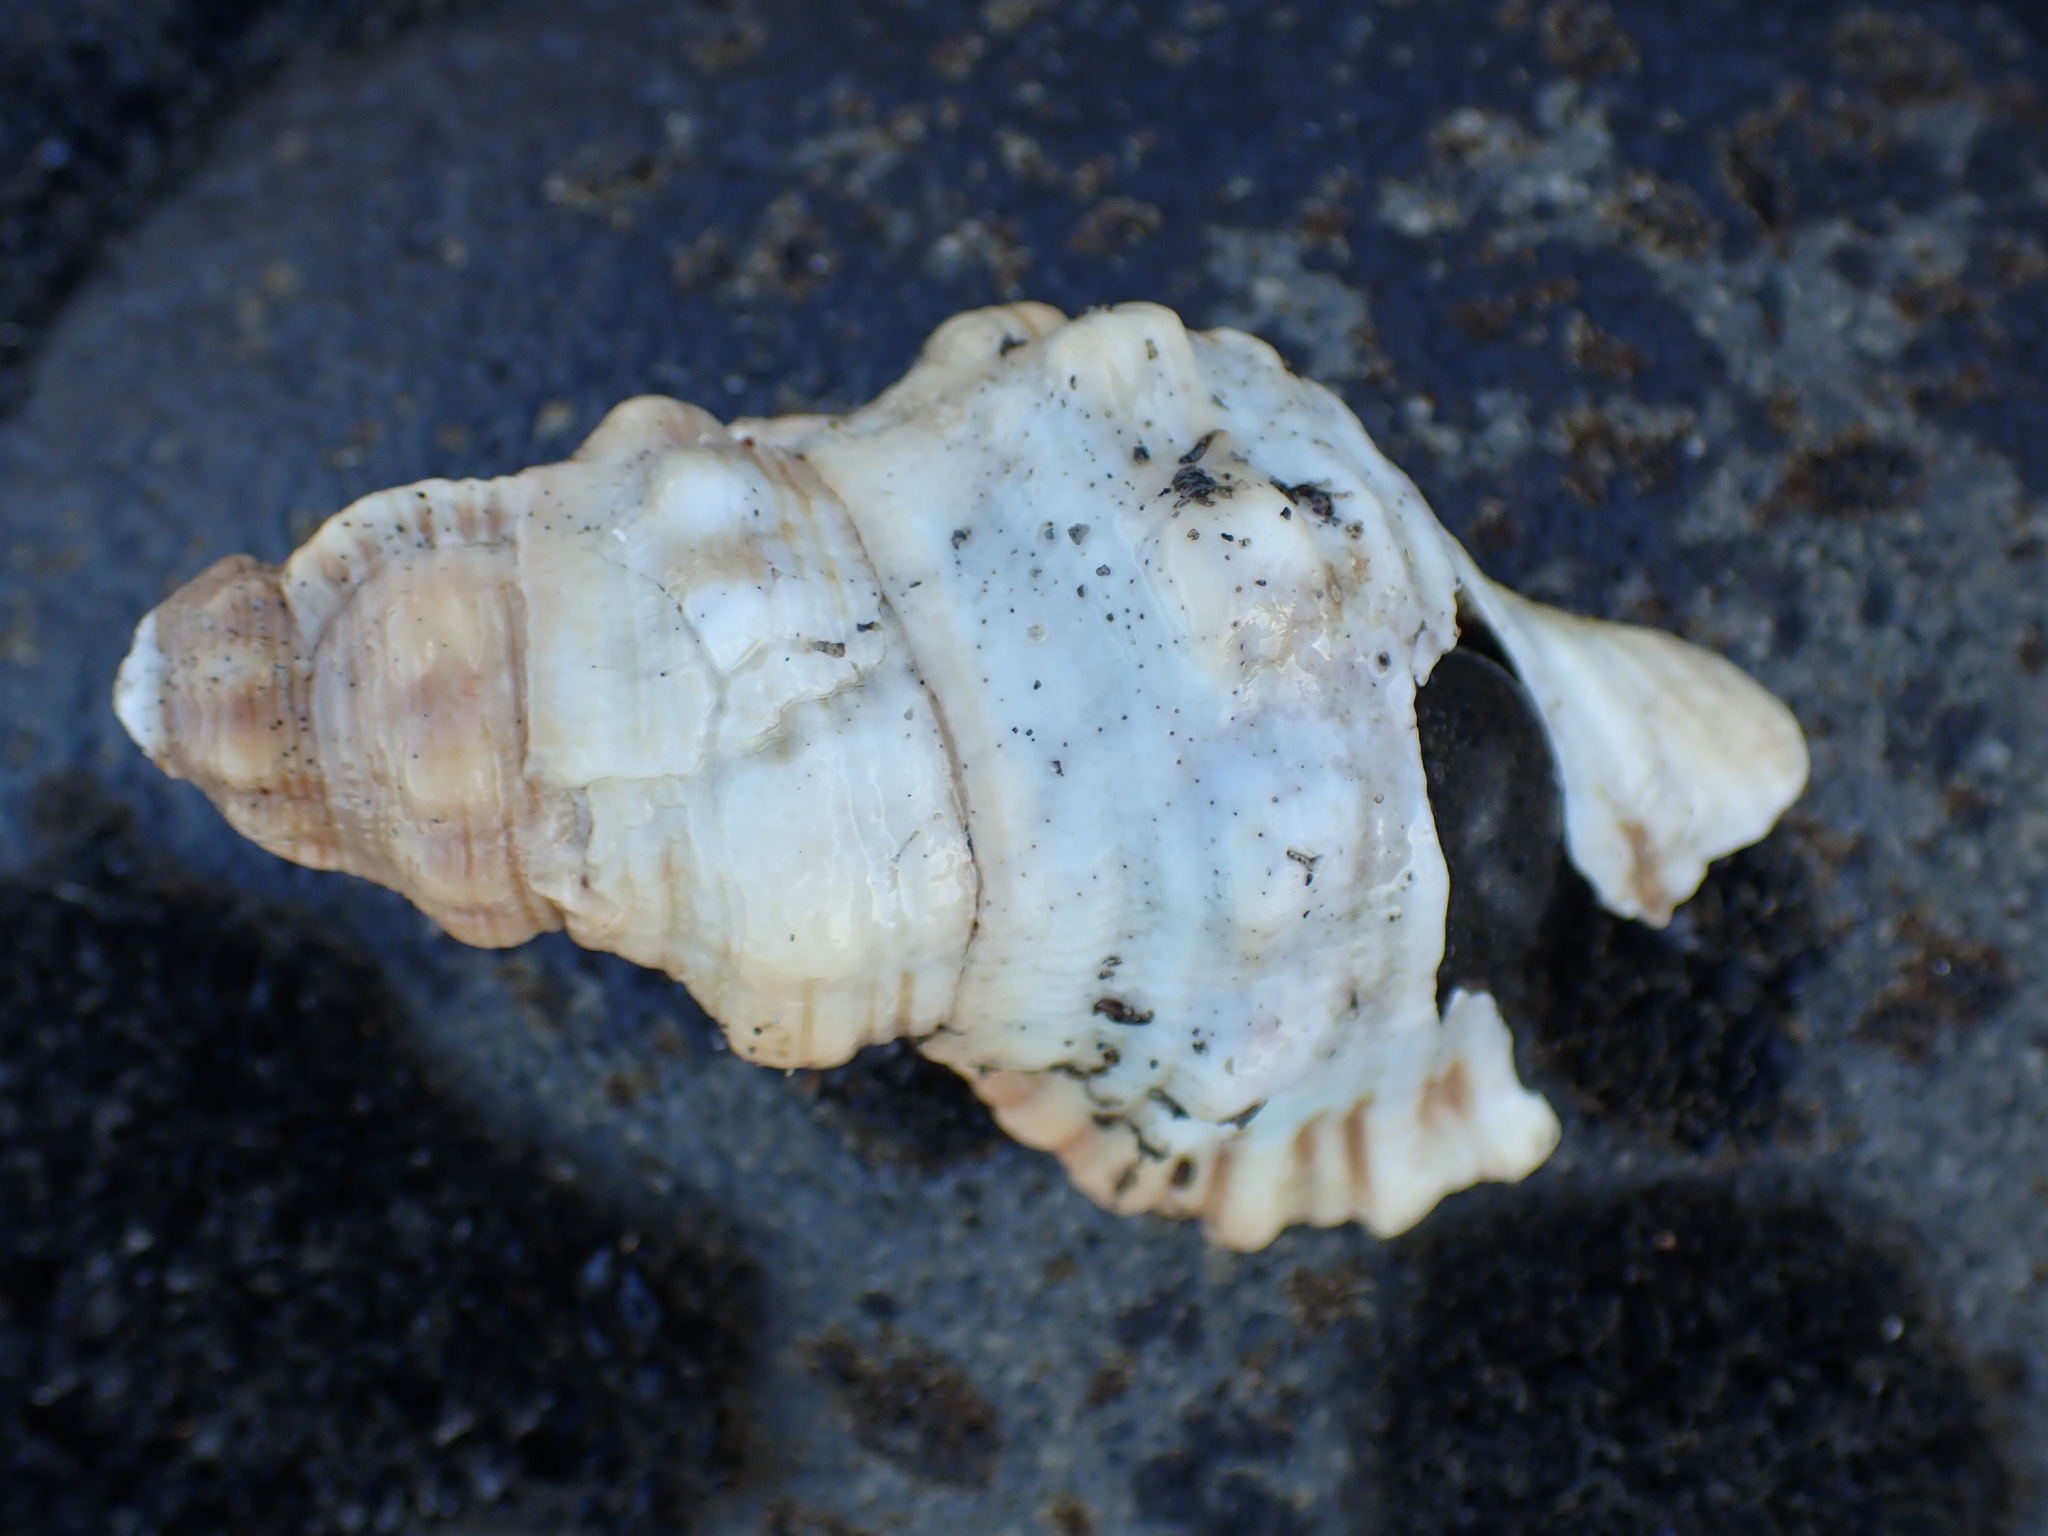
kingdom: Animalia
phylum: Mollusca
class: Gastropoda
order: Littorinimorpha
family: Cymatiidae
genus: Cabestana
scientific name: Cabestana spengleri
